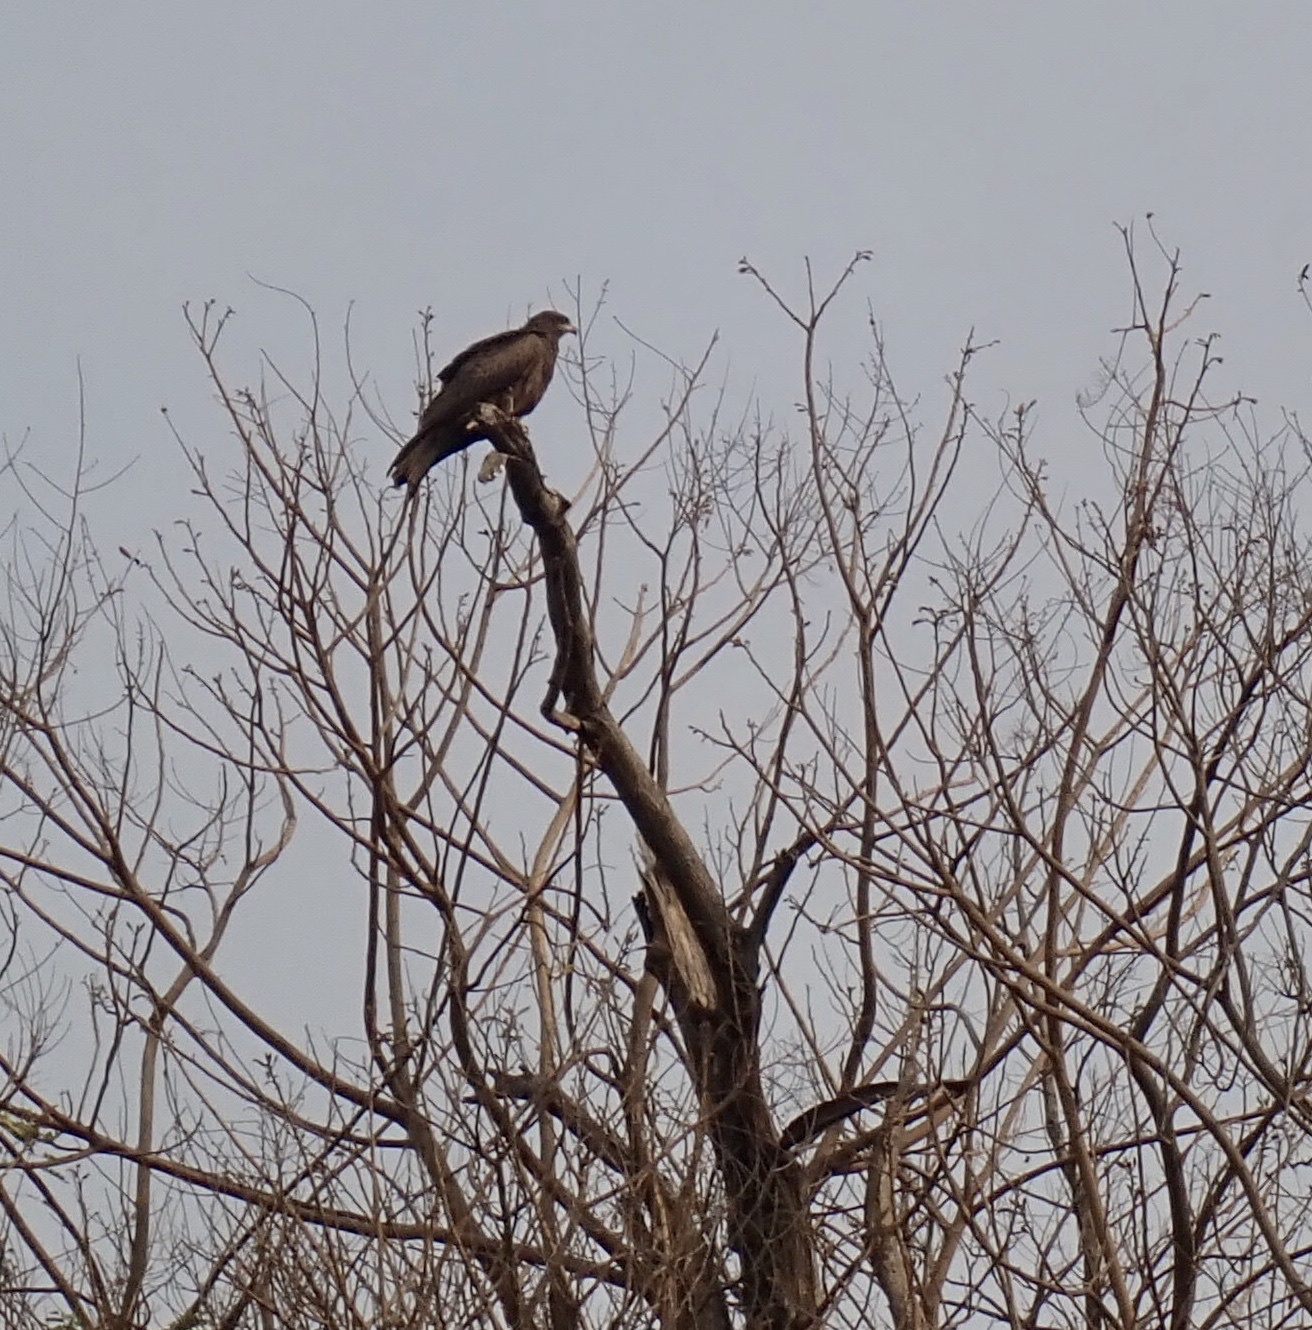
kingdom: Animalia
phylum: Chordata
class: Aves
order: Accipitriformes
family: Accipitridae
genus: Milvus
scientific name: Milvus migrans
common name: Black kite
